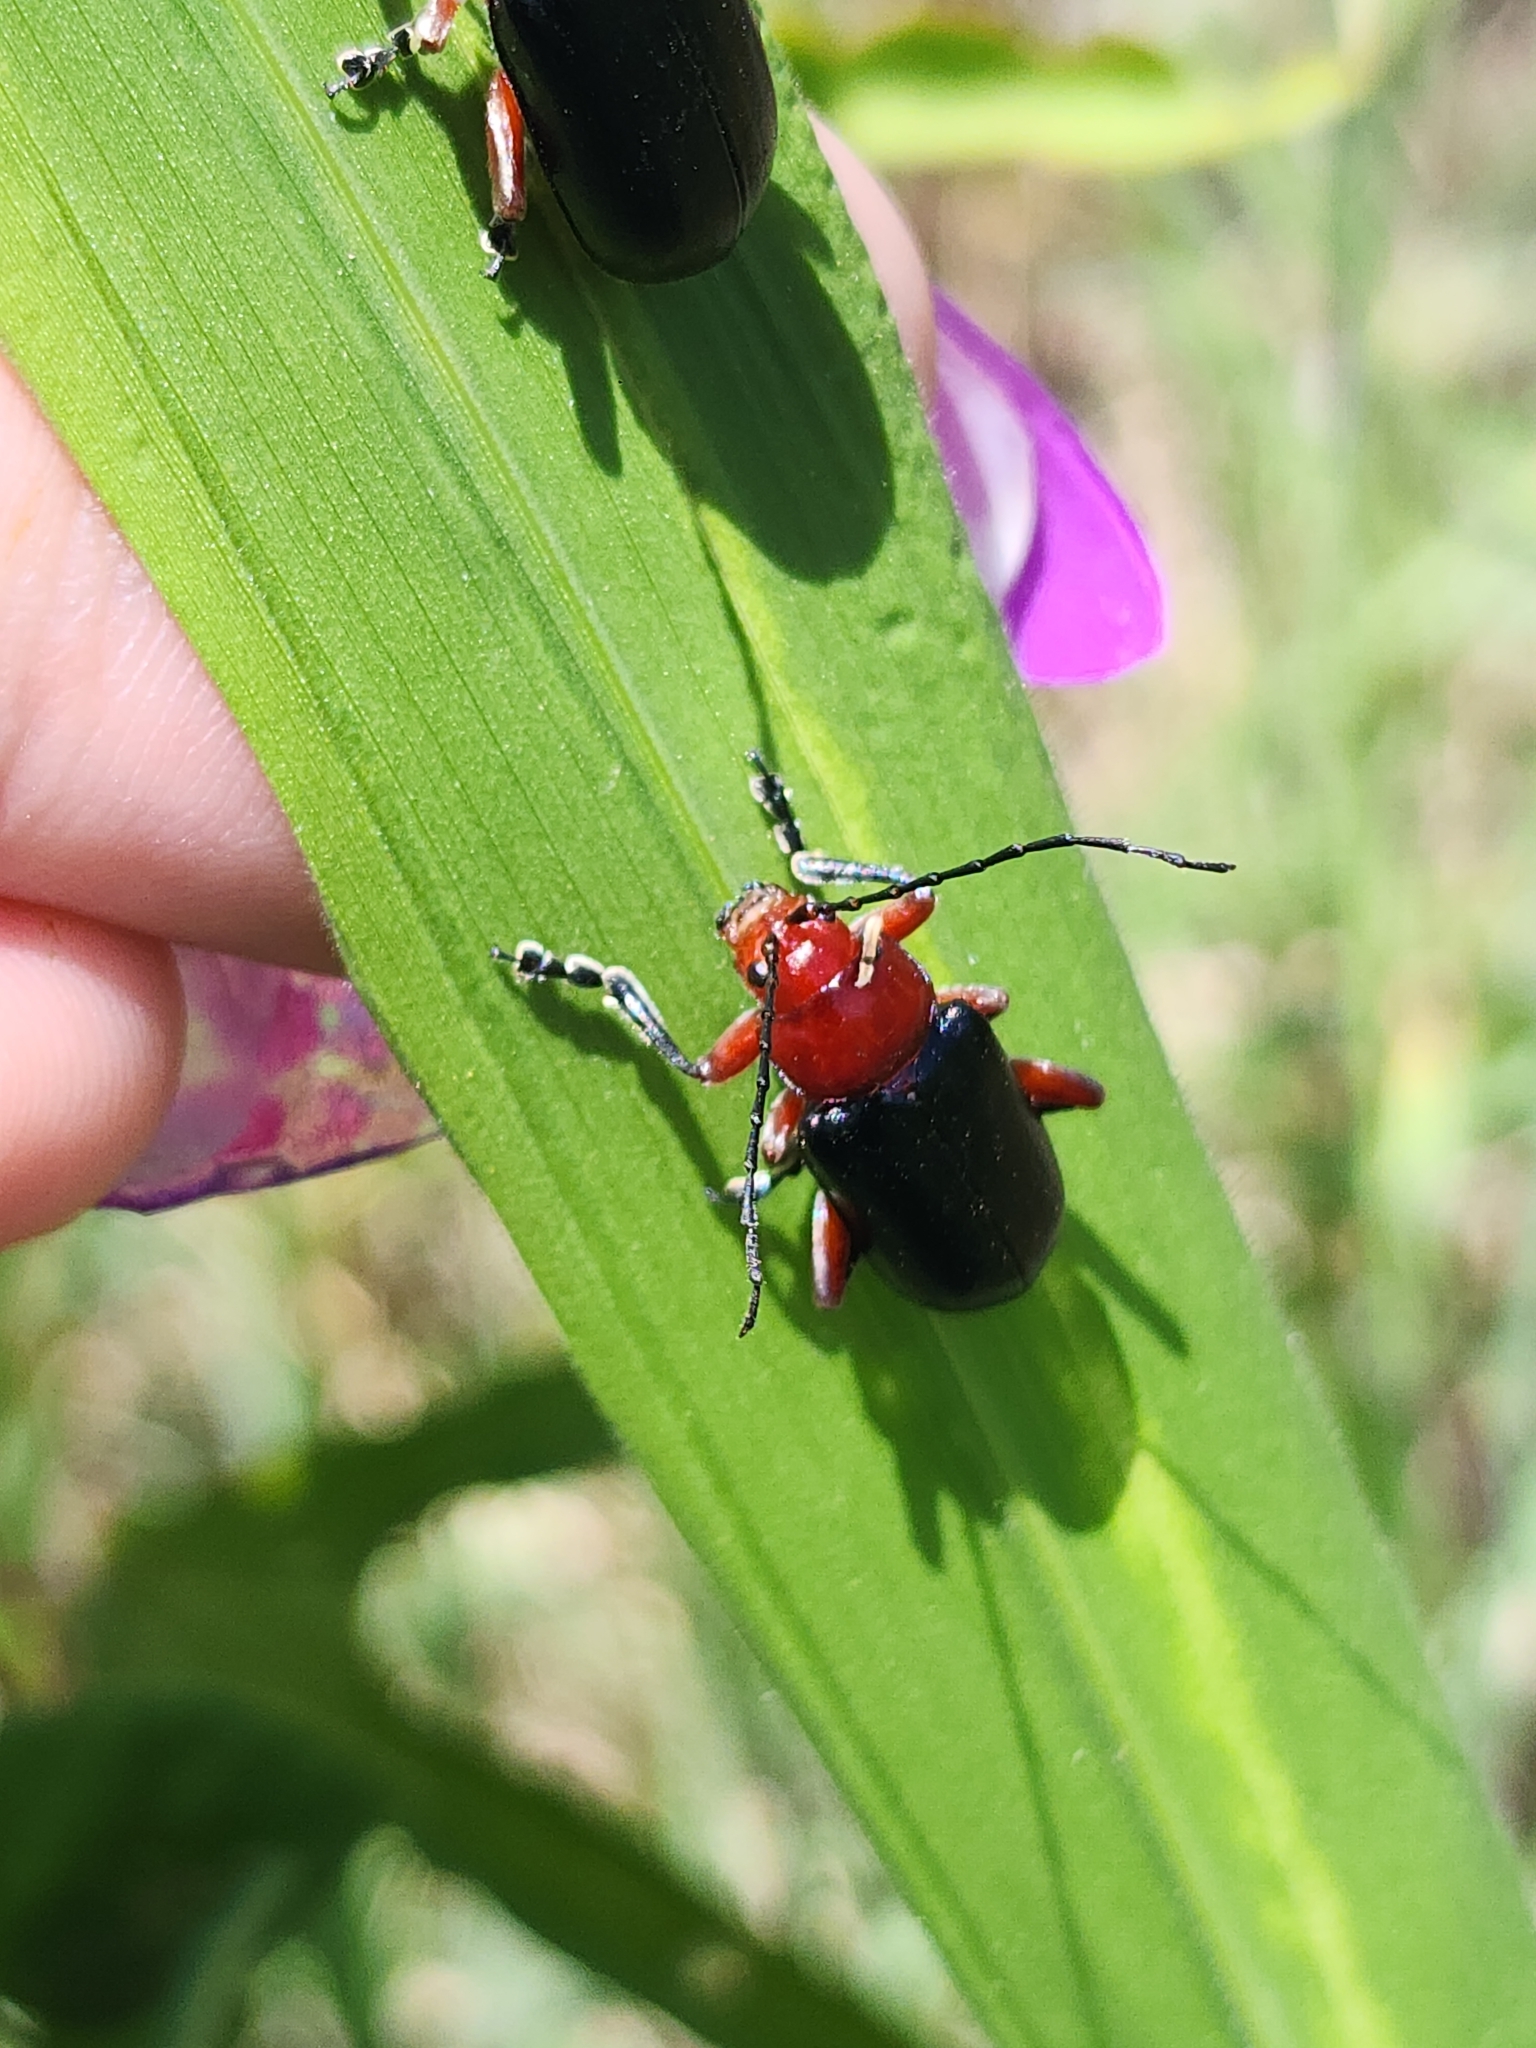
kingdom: Animalia
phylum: Arthropoda
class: Insecta
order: Coleoptera
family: Chrysomelidae
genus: Cacoscelis
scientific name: Cacoscelis
